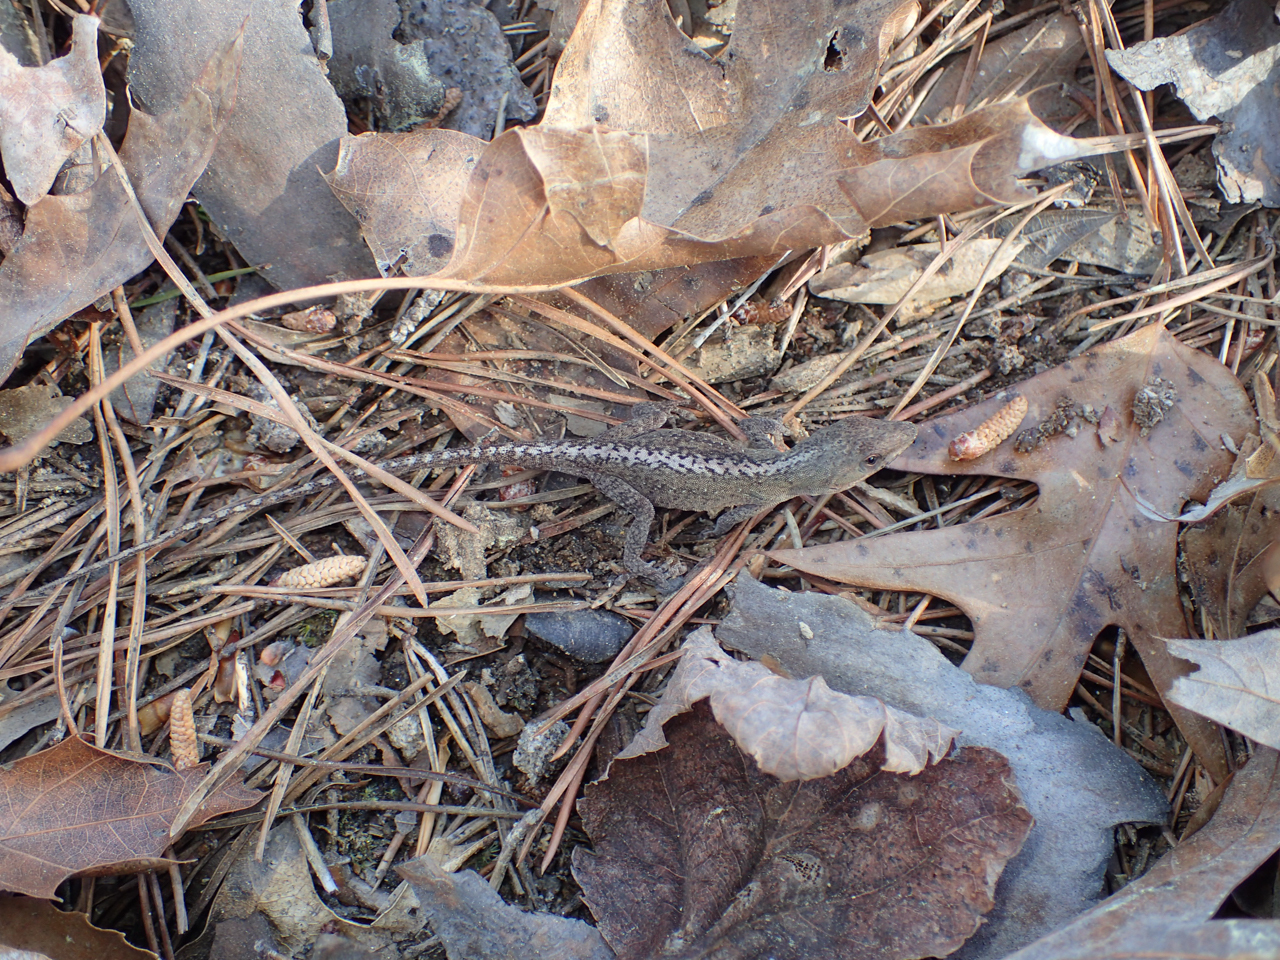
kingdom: Animalia
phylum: Chordata
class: Squamata
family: Dactyloidae
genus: Anolis
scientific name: Anolis carolinensis
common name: Green anole
